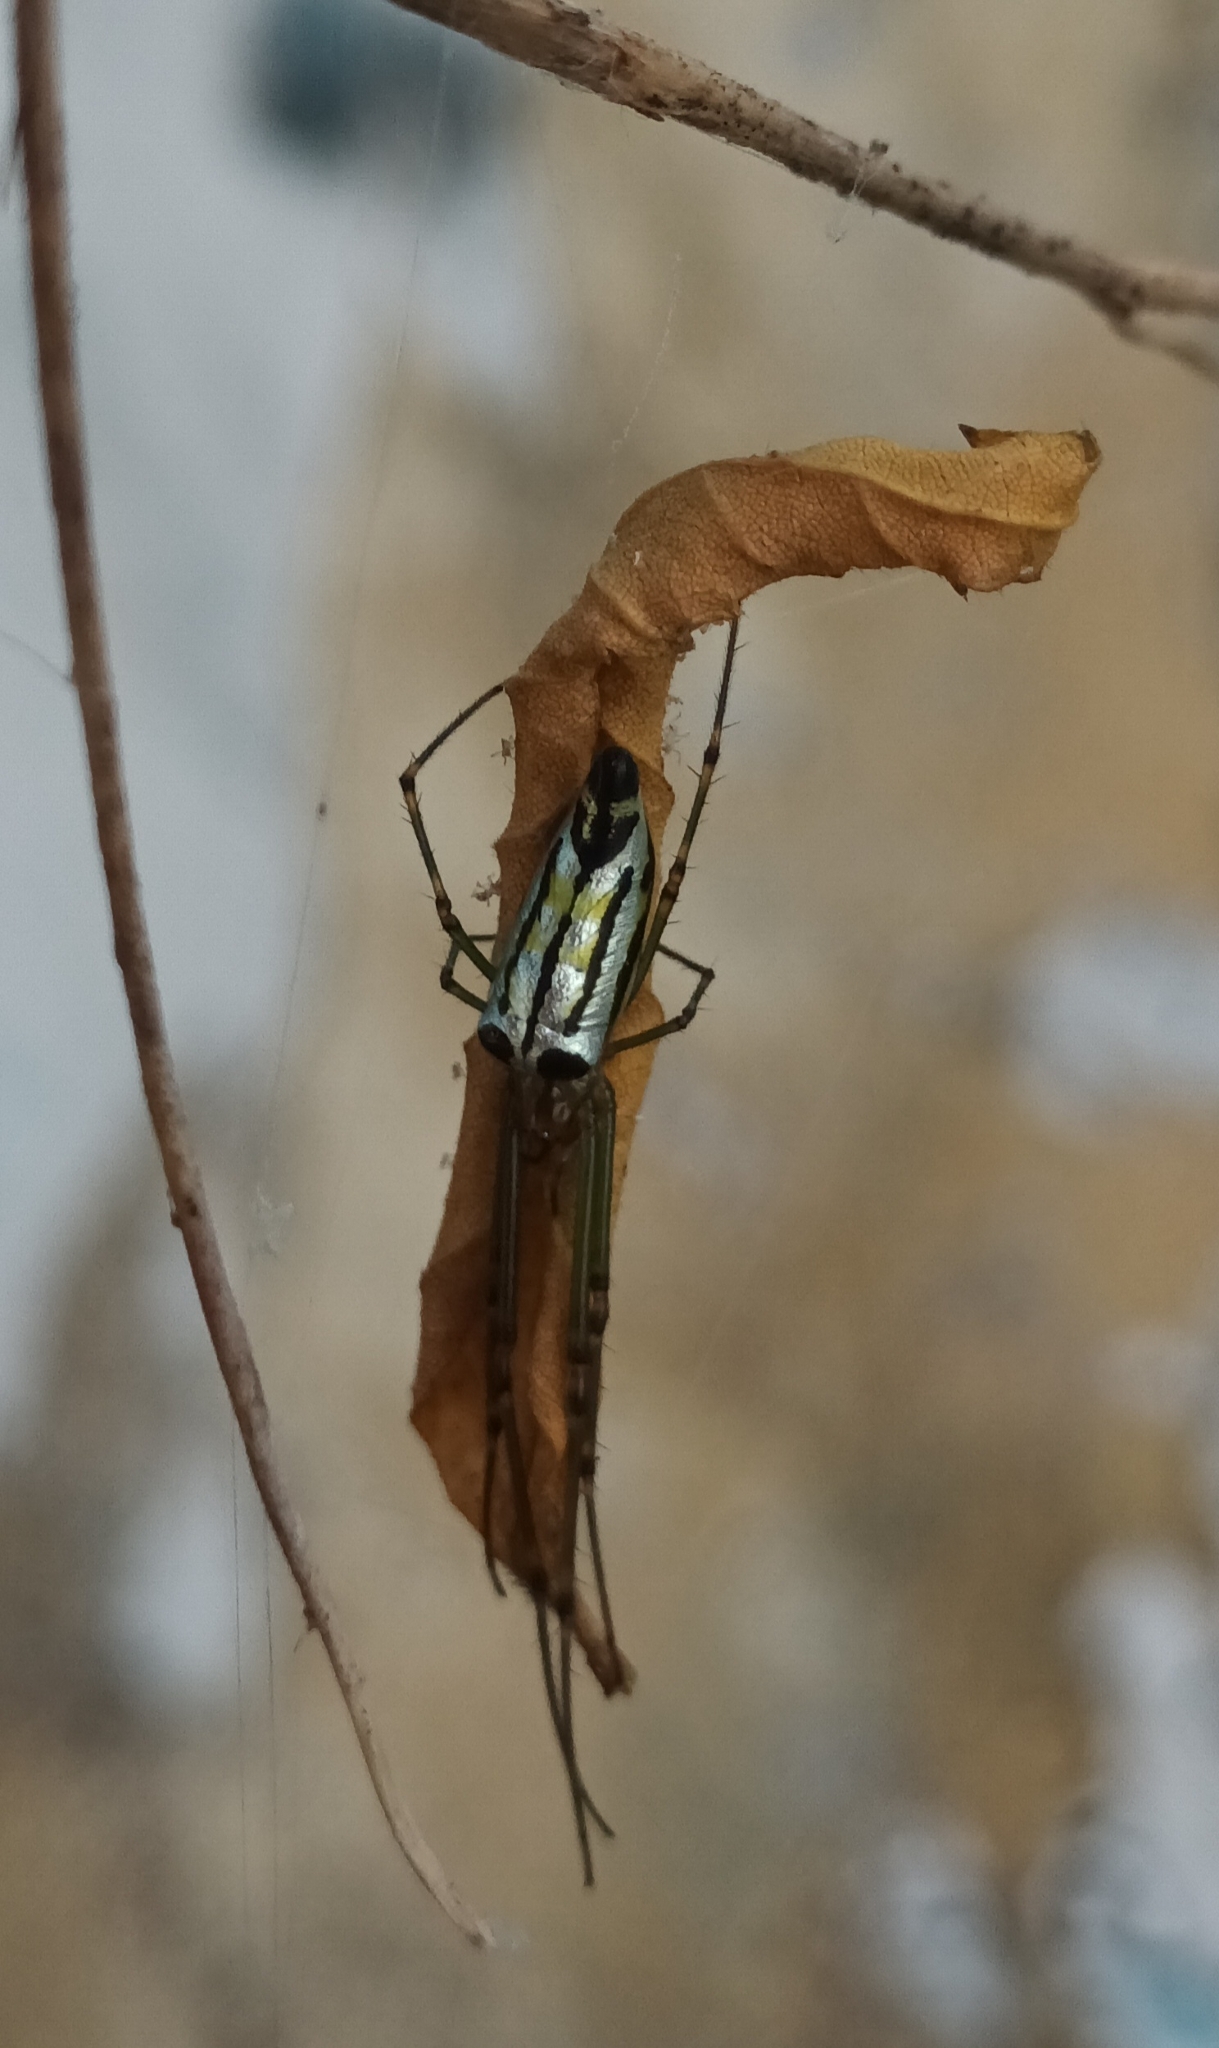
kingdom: Animalia
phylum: Arthropoda
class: Arachnida
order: Araneae
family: Tetragnathidae
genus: Leucauge
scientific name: Leucauge decorata
